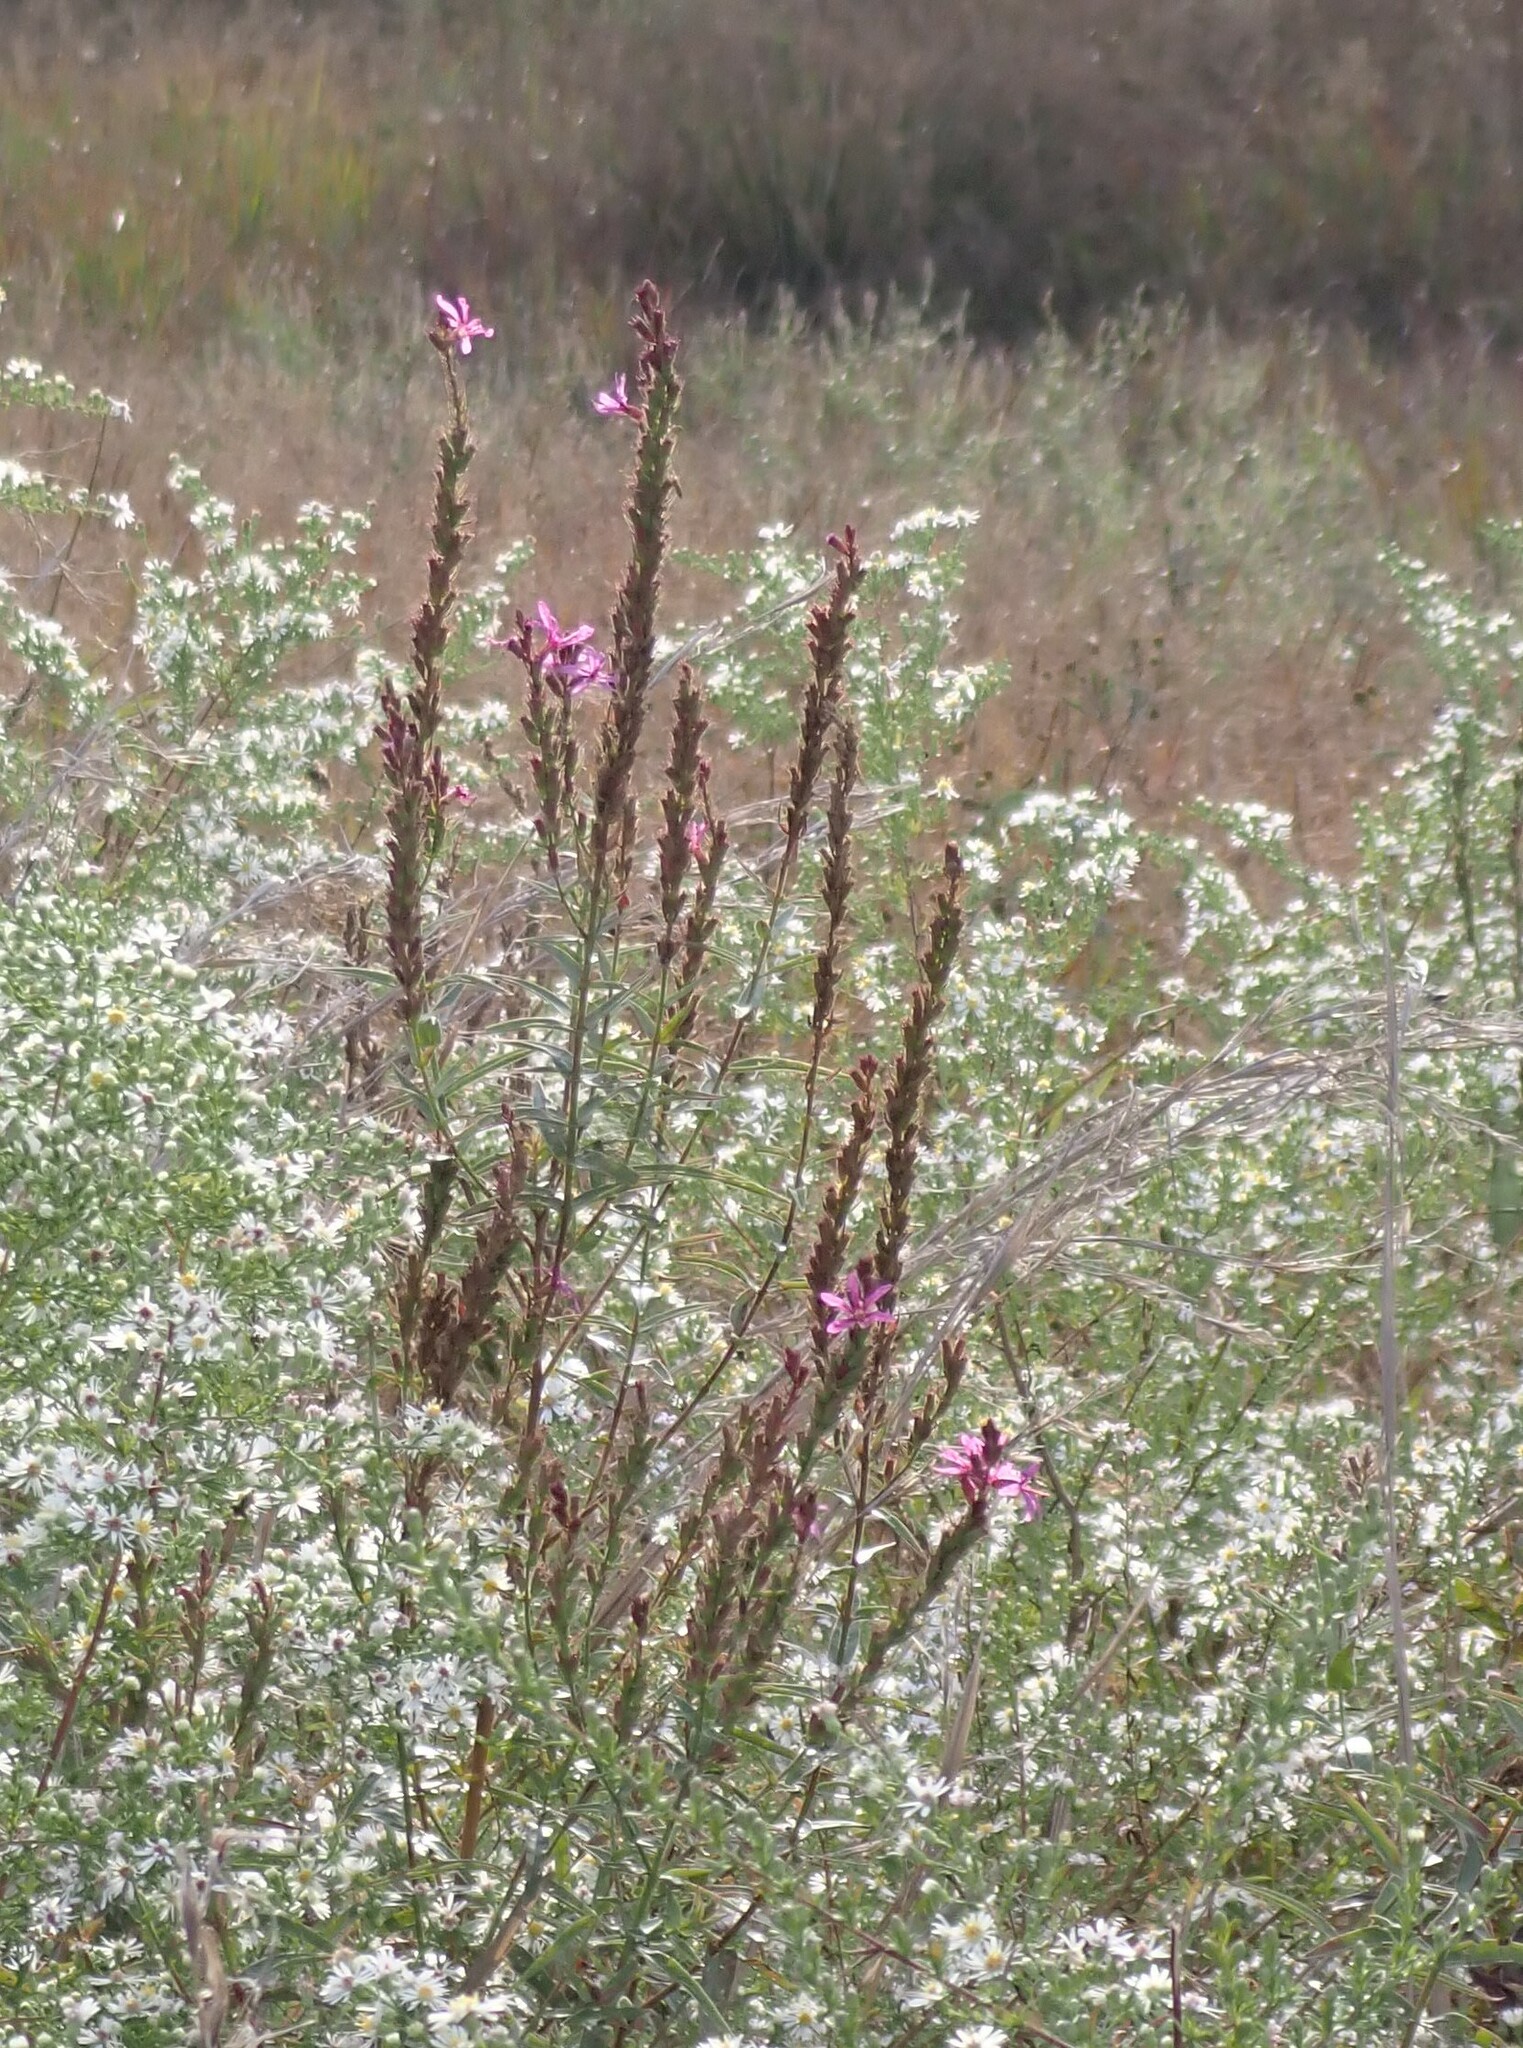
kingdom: Plantae
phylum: Tracheophyta
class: Magnoliopsida
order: Myrtales
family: Lythraceae
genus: Lythrum
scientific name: Lythrum salicaria
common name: Purple loosestrife
